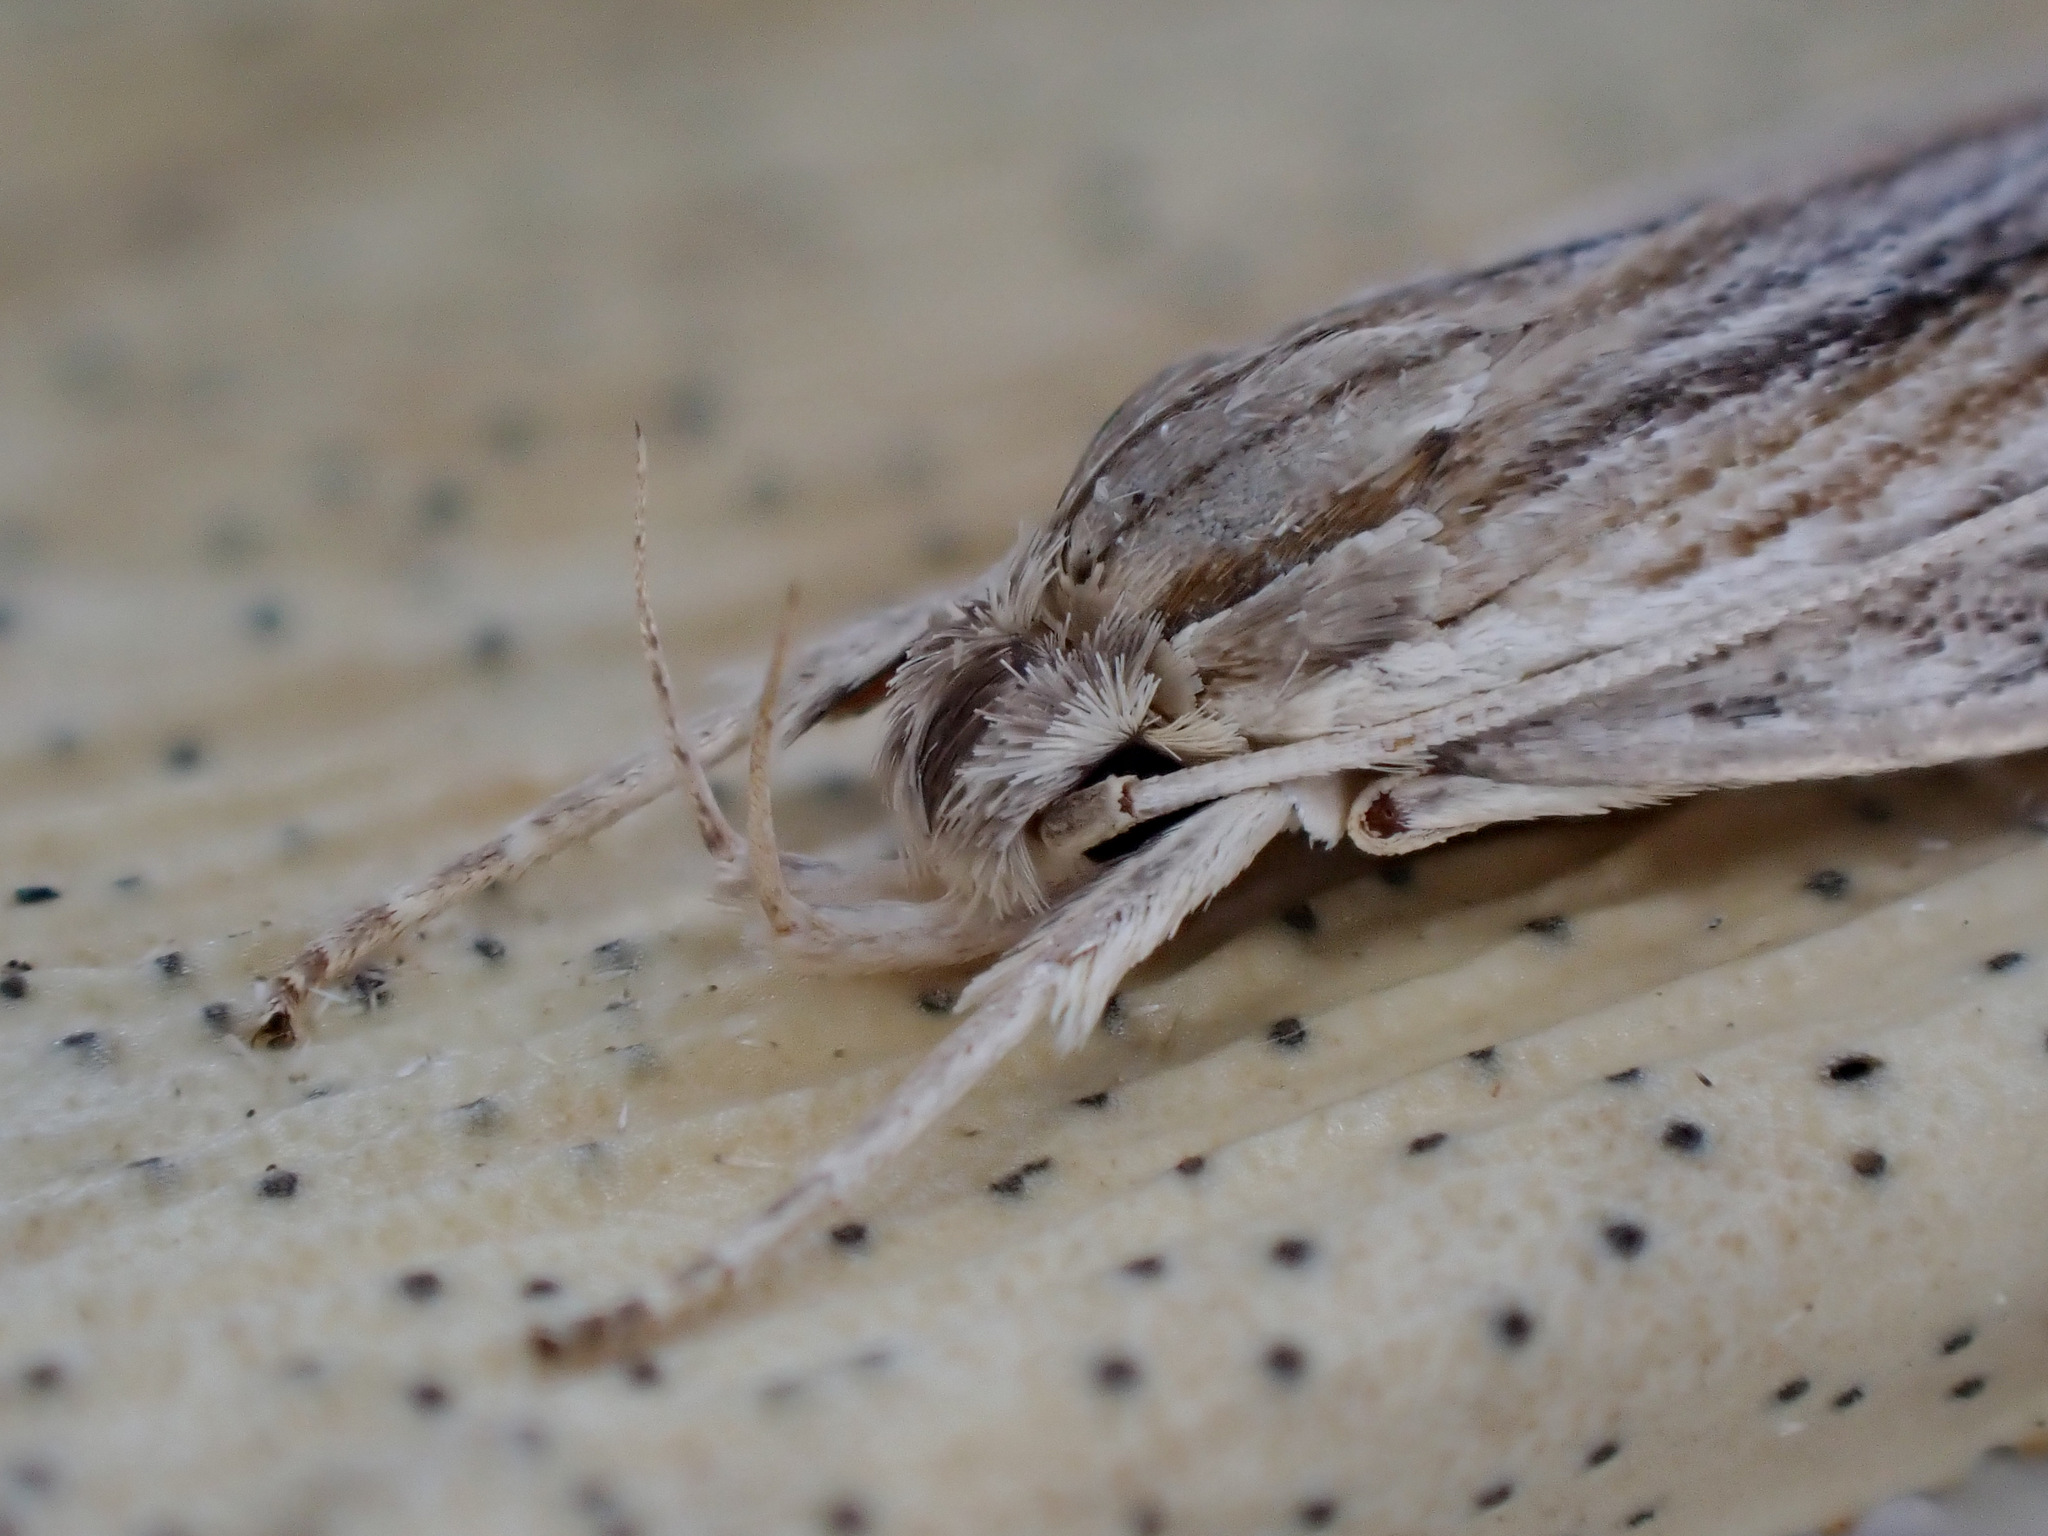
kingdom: Animalia
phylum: Arthropoda
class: Insecta
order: Lepidoptera
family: Xyloryctidae
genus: Donacostola
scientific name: Donacostola notabilis
